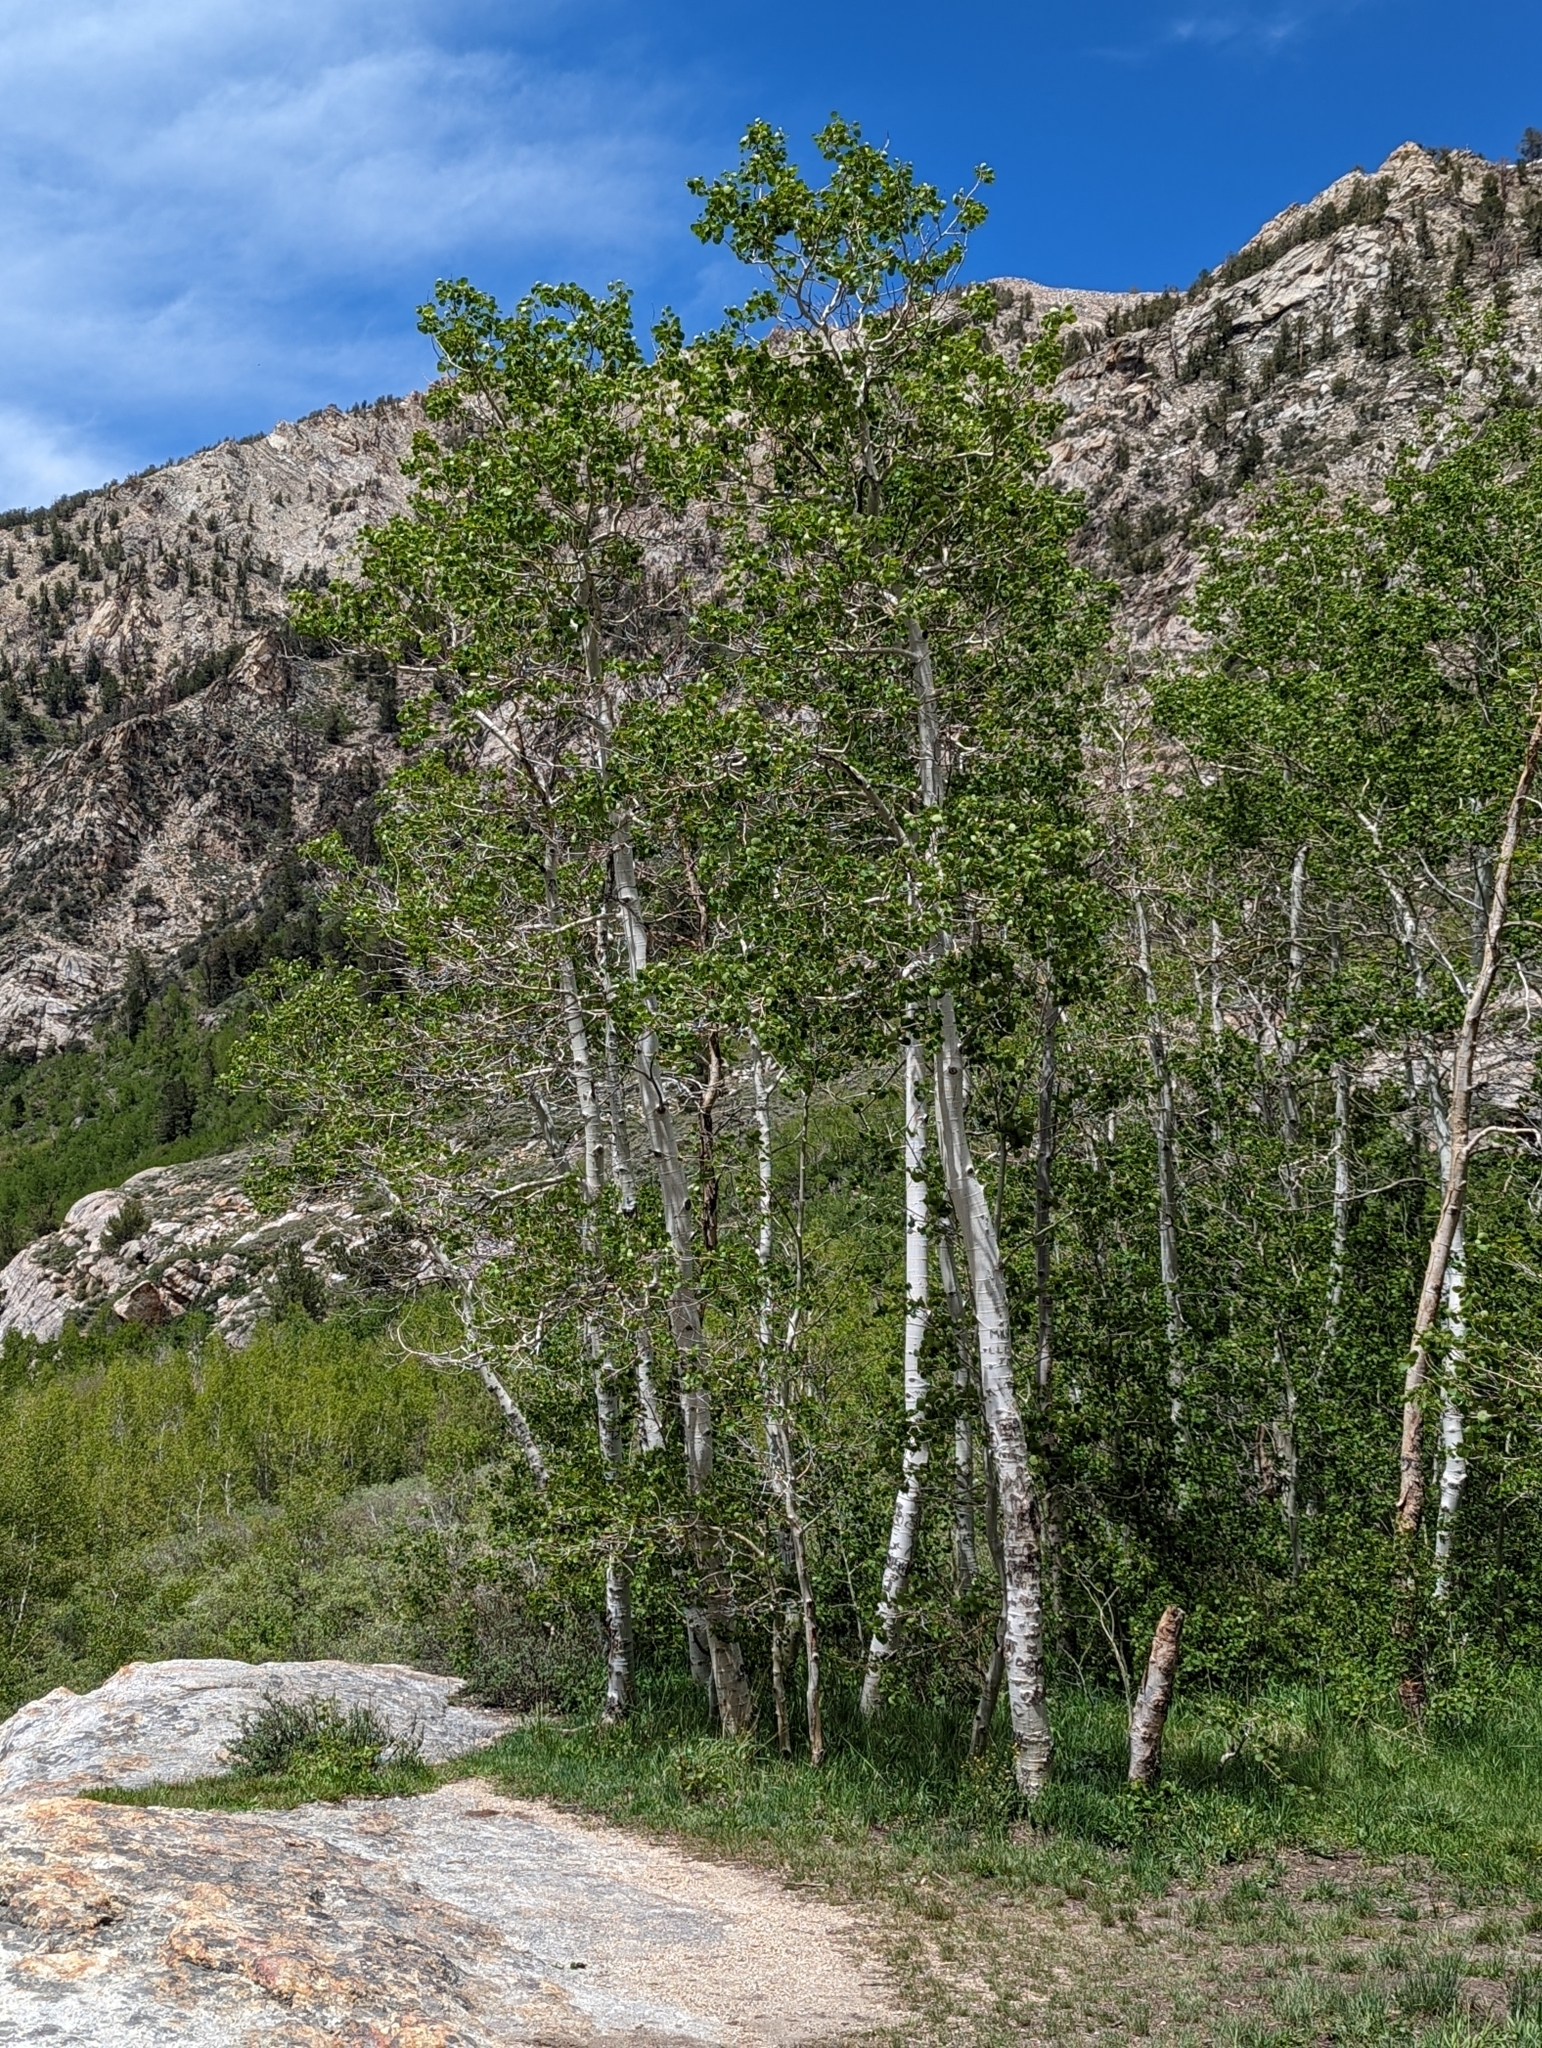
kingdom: Plantae
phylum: Tracheophyta
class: Magnoliopsida
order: Malpighiales
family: Salicaceae
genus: Populus
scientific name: Populus tremuloides
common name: Quaking aspen
